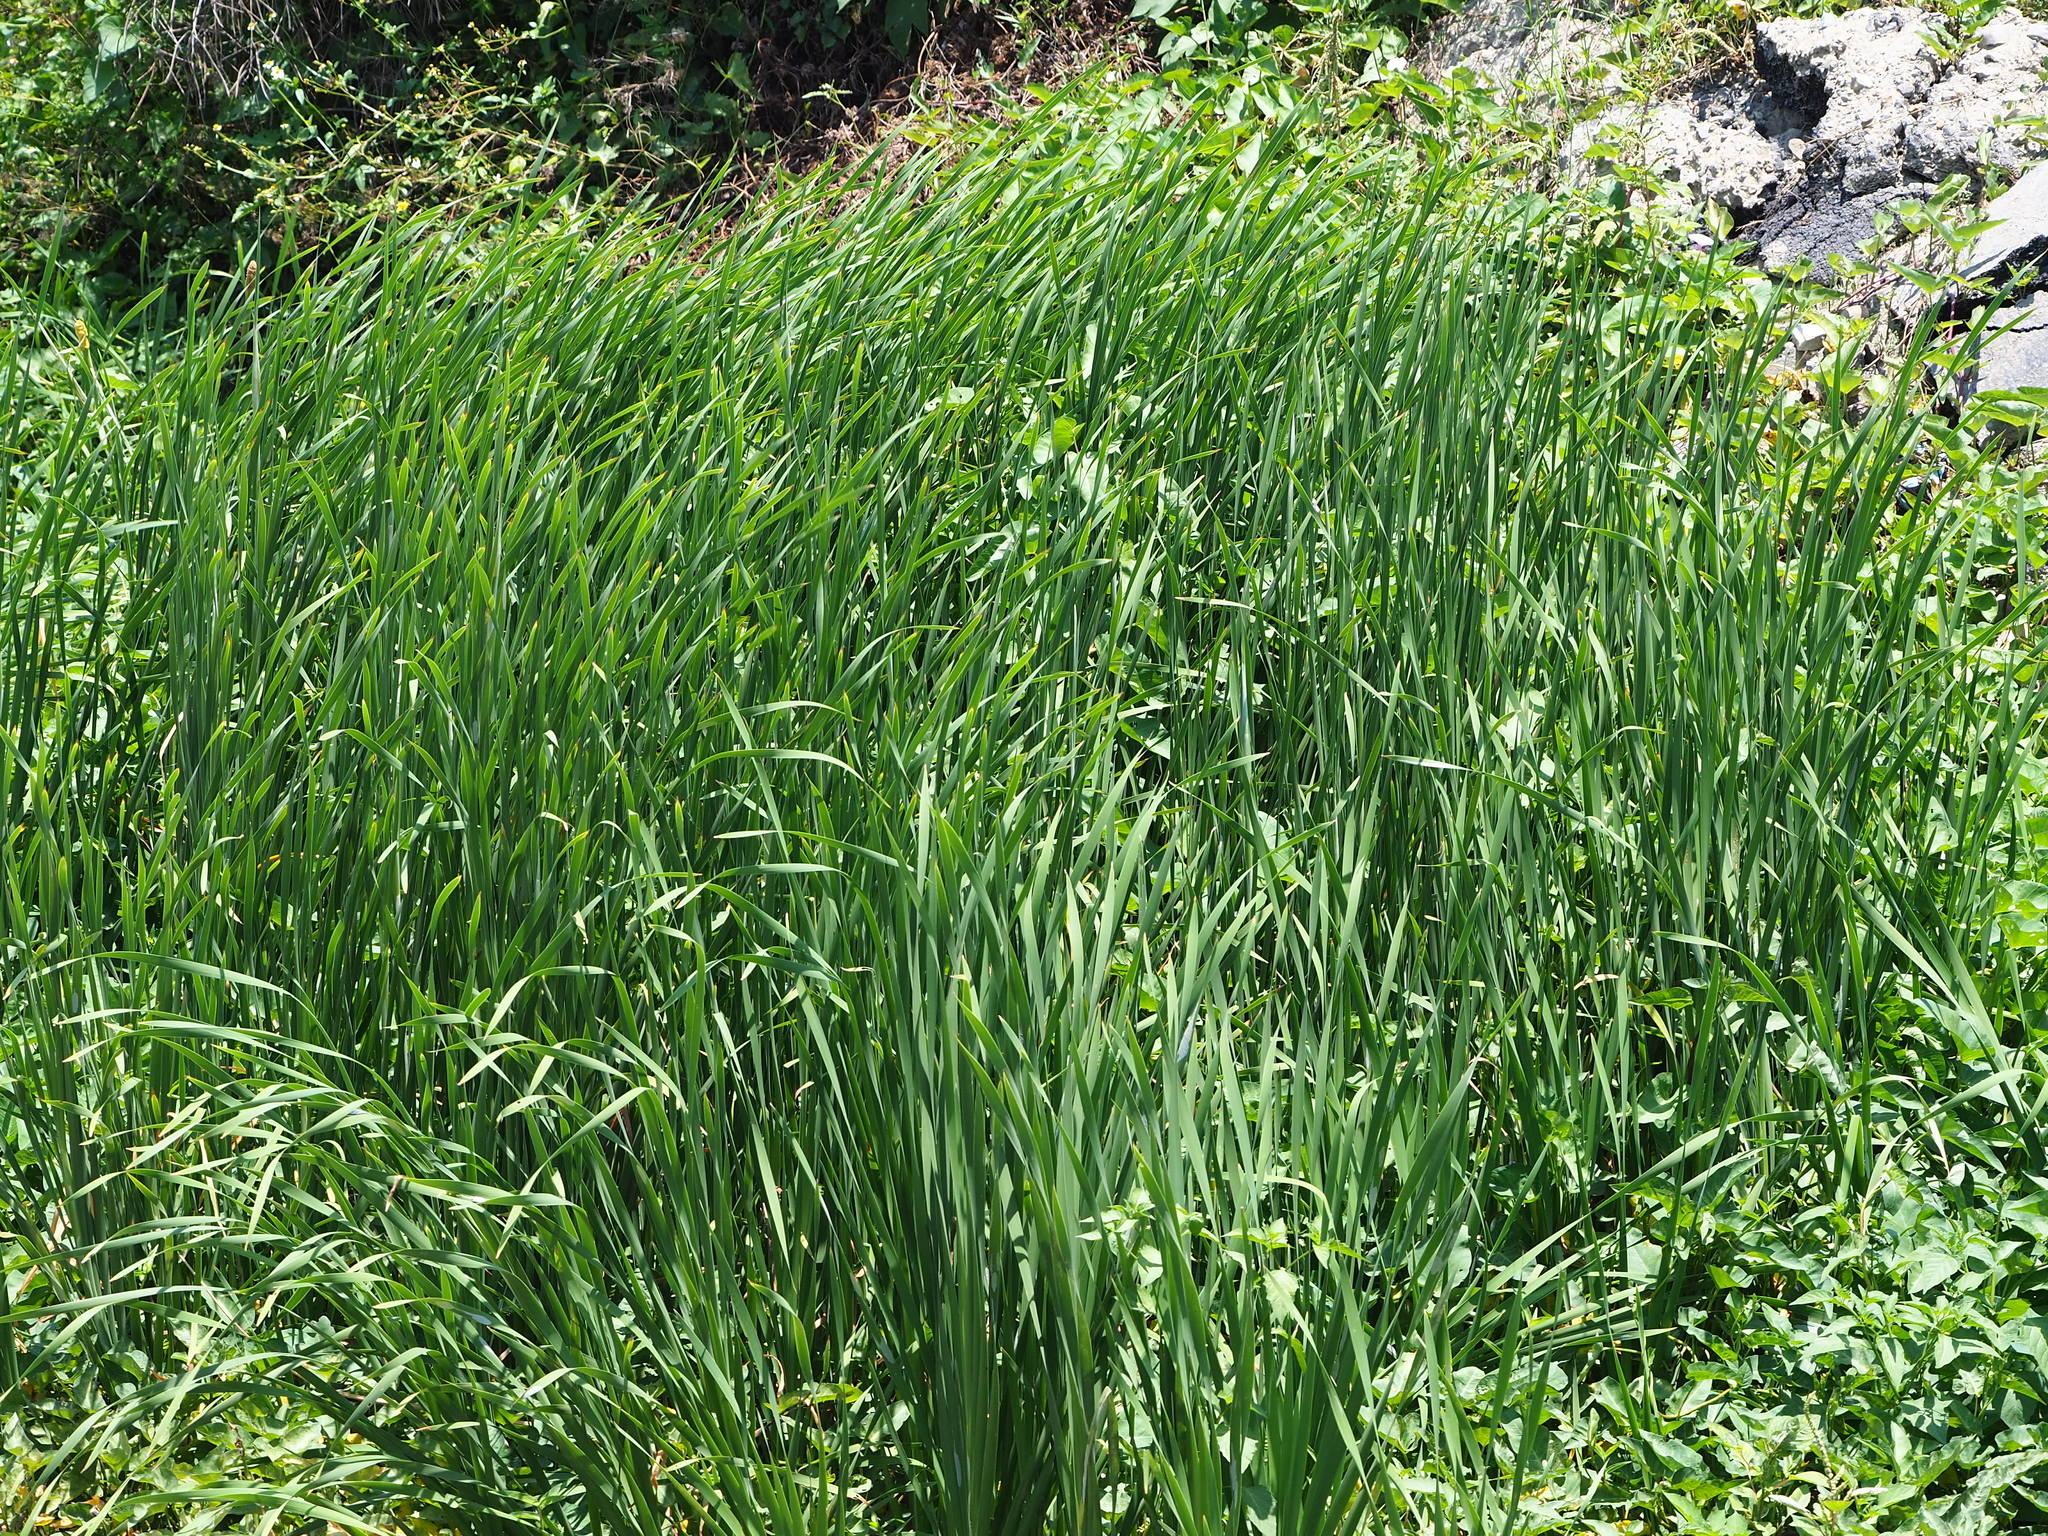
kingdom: Plantae
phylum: Tracheophyta
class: Liliopsida
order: Poales
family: Typhaceae
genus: Typha
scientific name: Typha orientalis
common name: Bullrush
